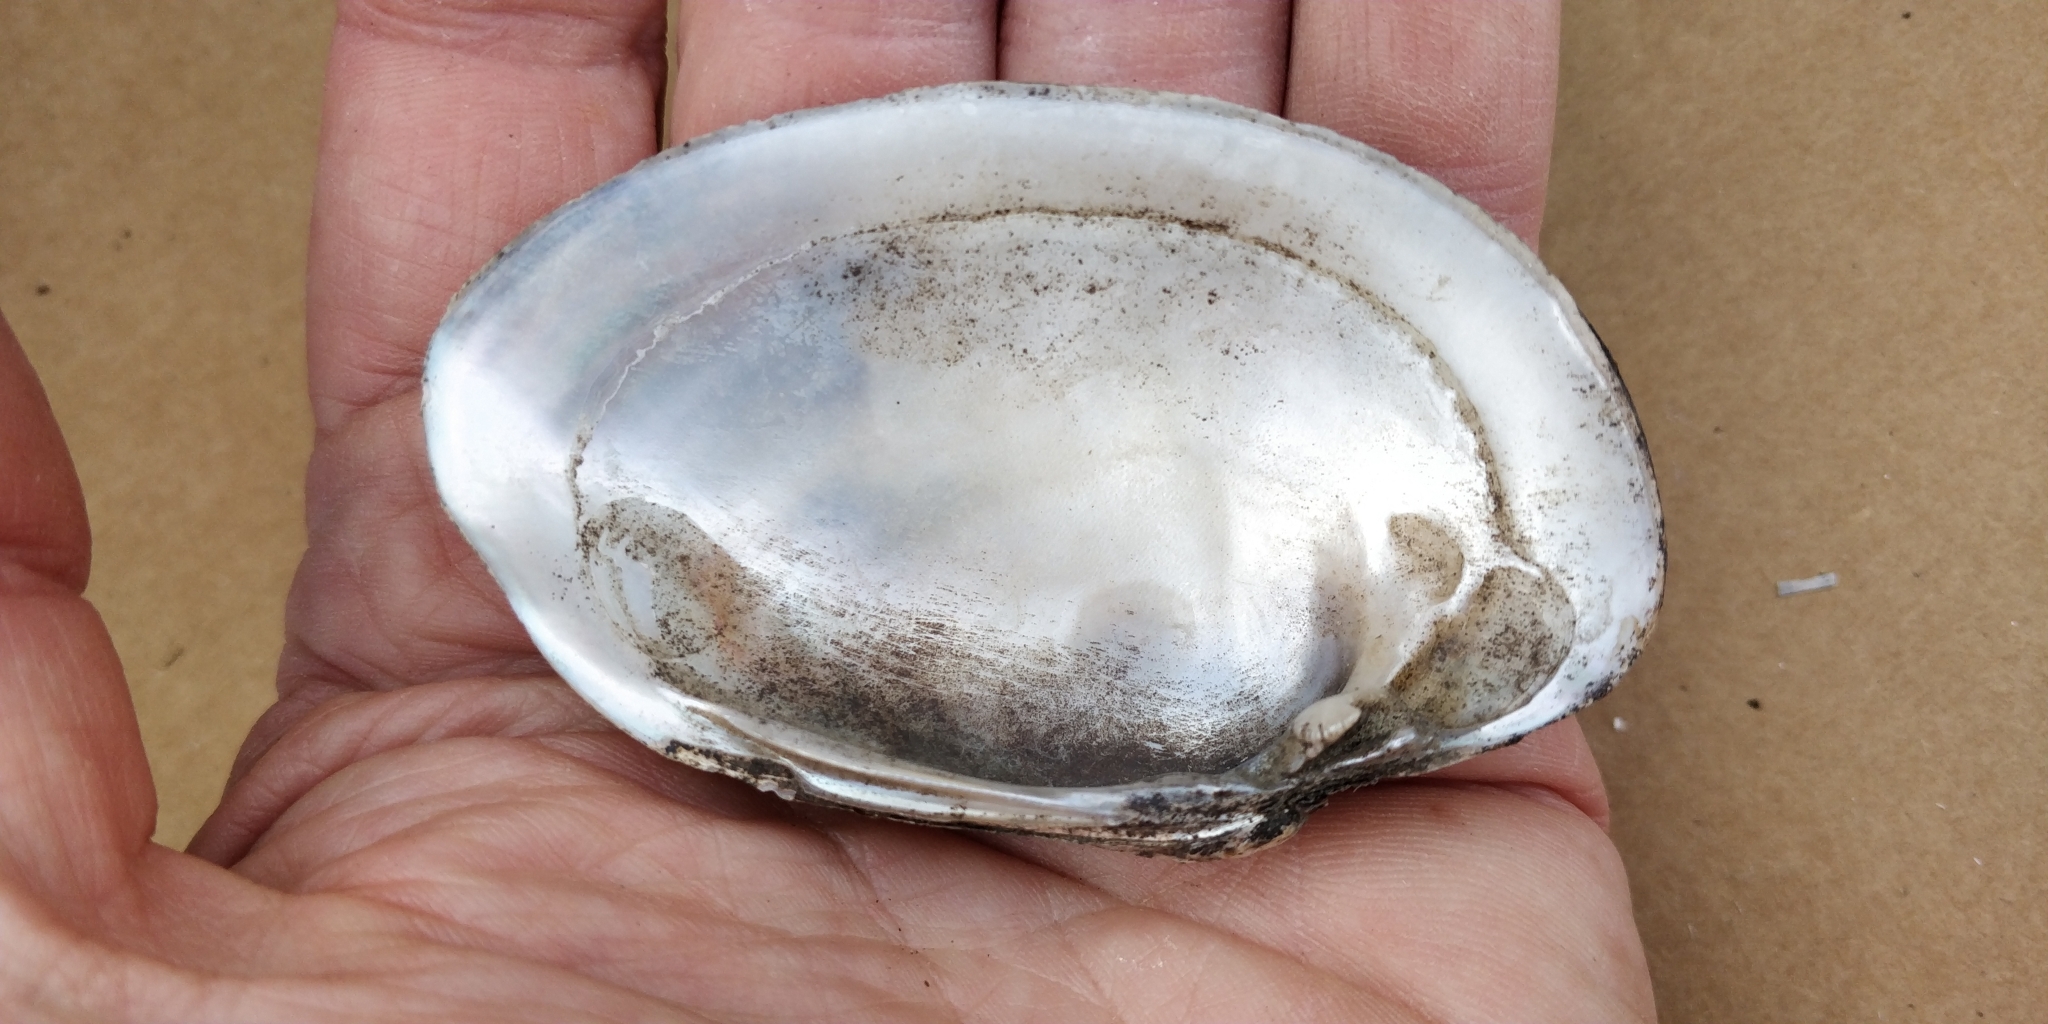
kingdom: Animalia
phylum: Mollusca
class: Bivalvia
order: Unionida
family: Unionidae
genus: Lampsilis
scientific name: Lampsilis cardium
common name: Plain pocketbook
